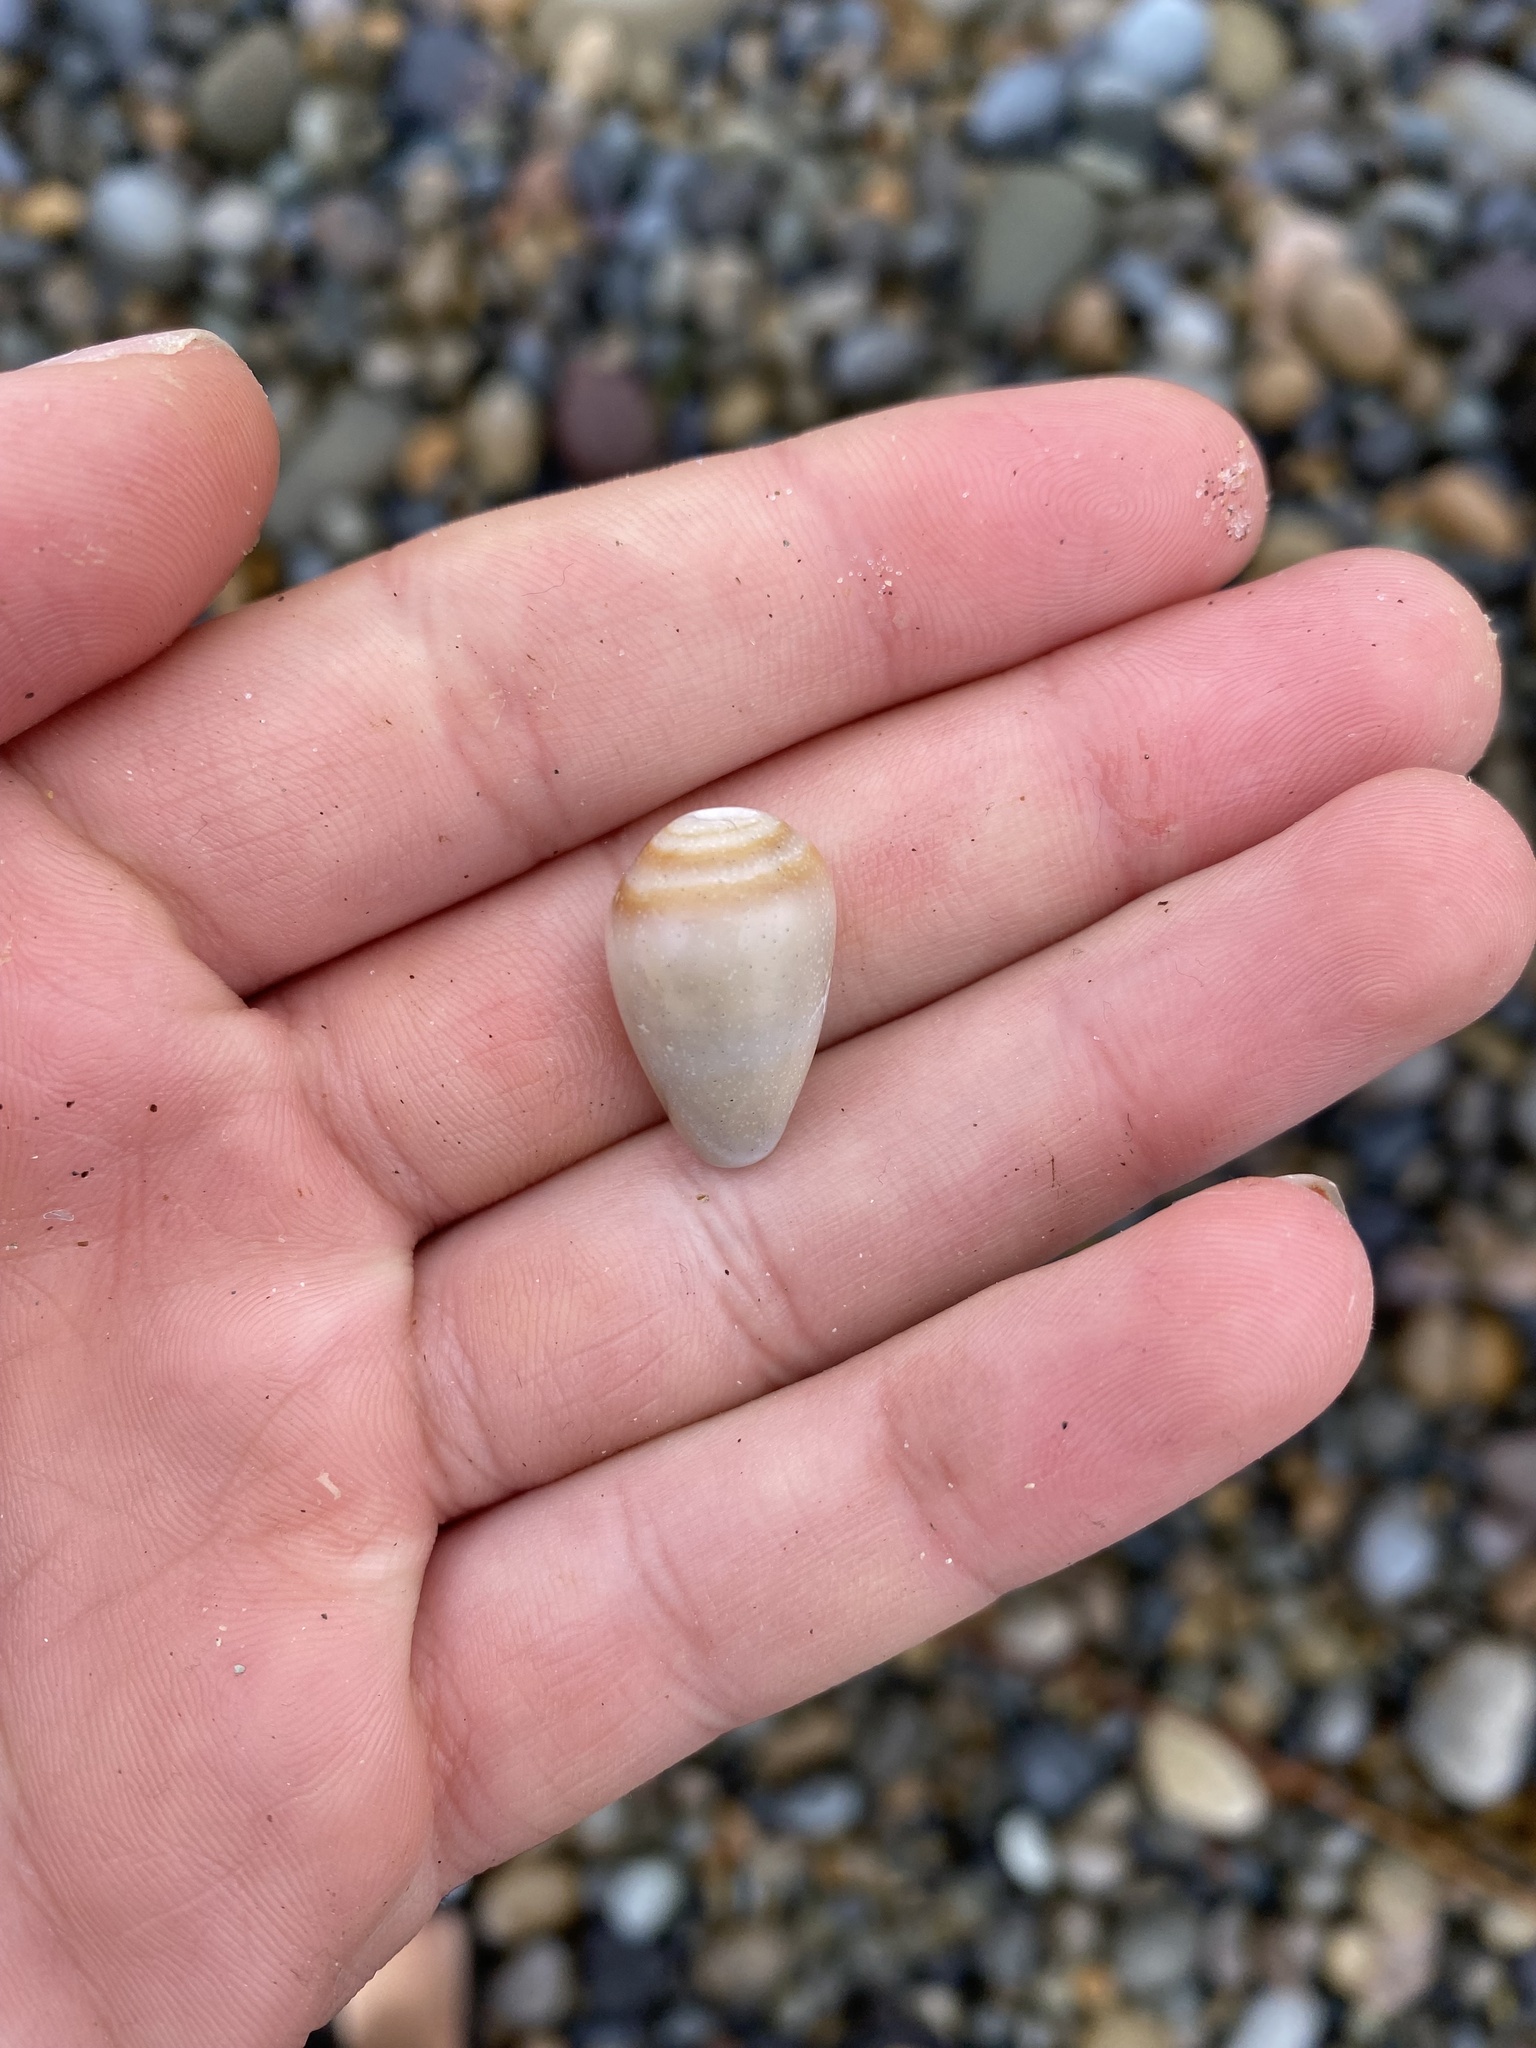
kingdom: Animalia
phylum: Mollusca
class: Gastropoda
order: Neogastropoda
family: Conidae
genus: Californiconus
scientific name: Californiconus californicus
